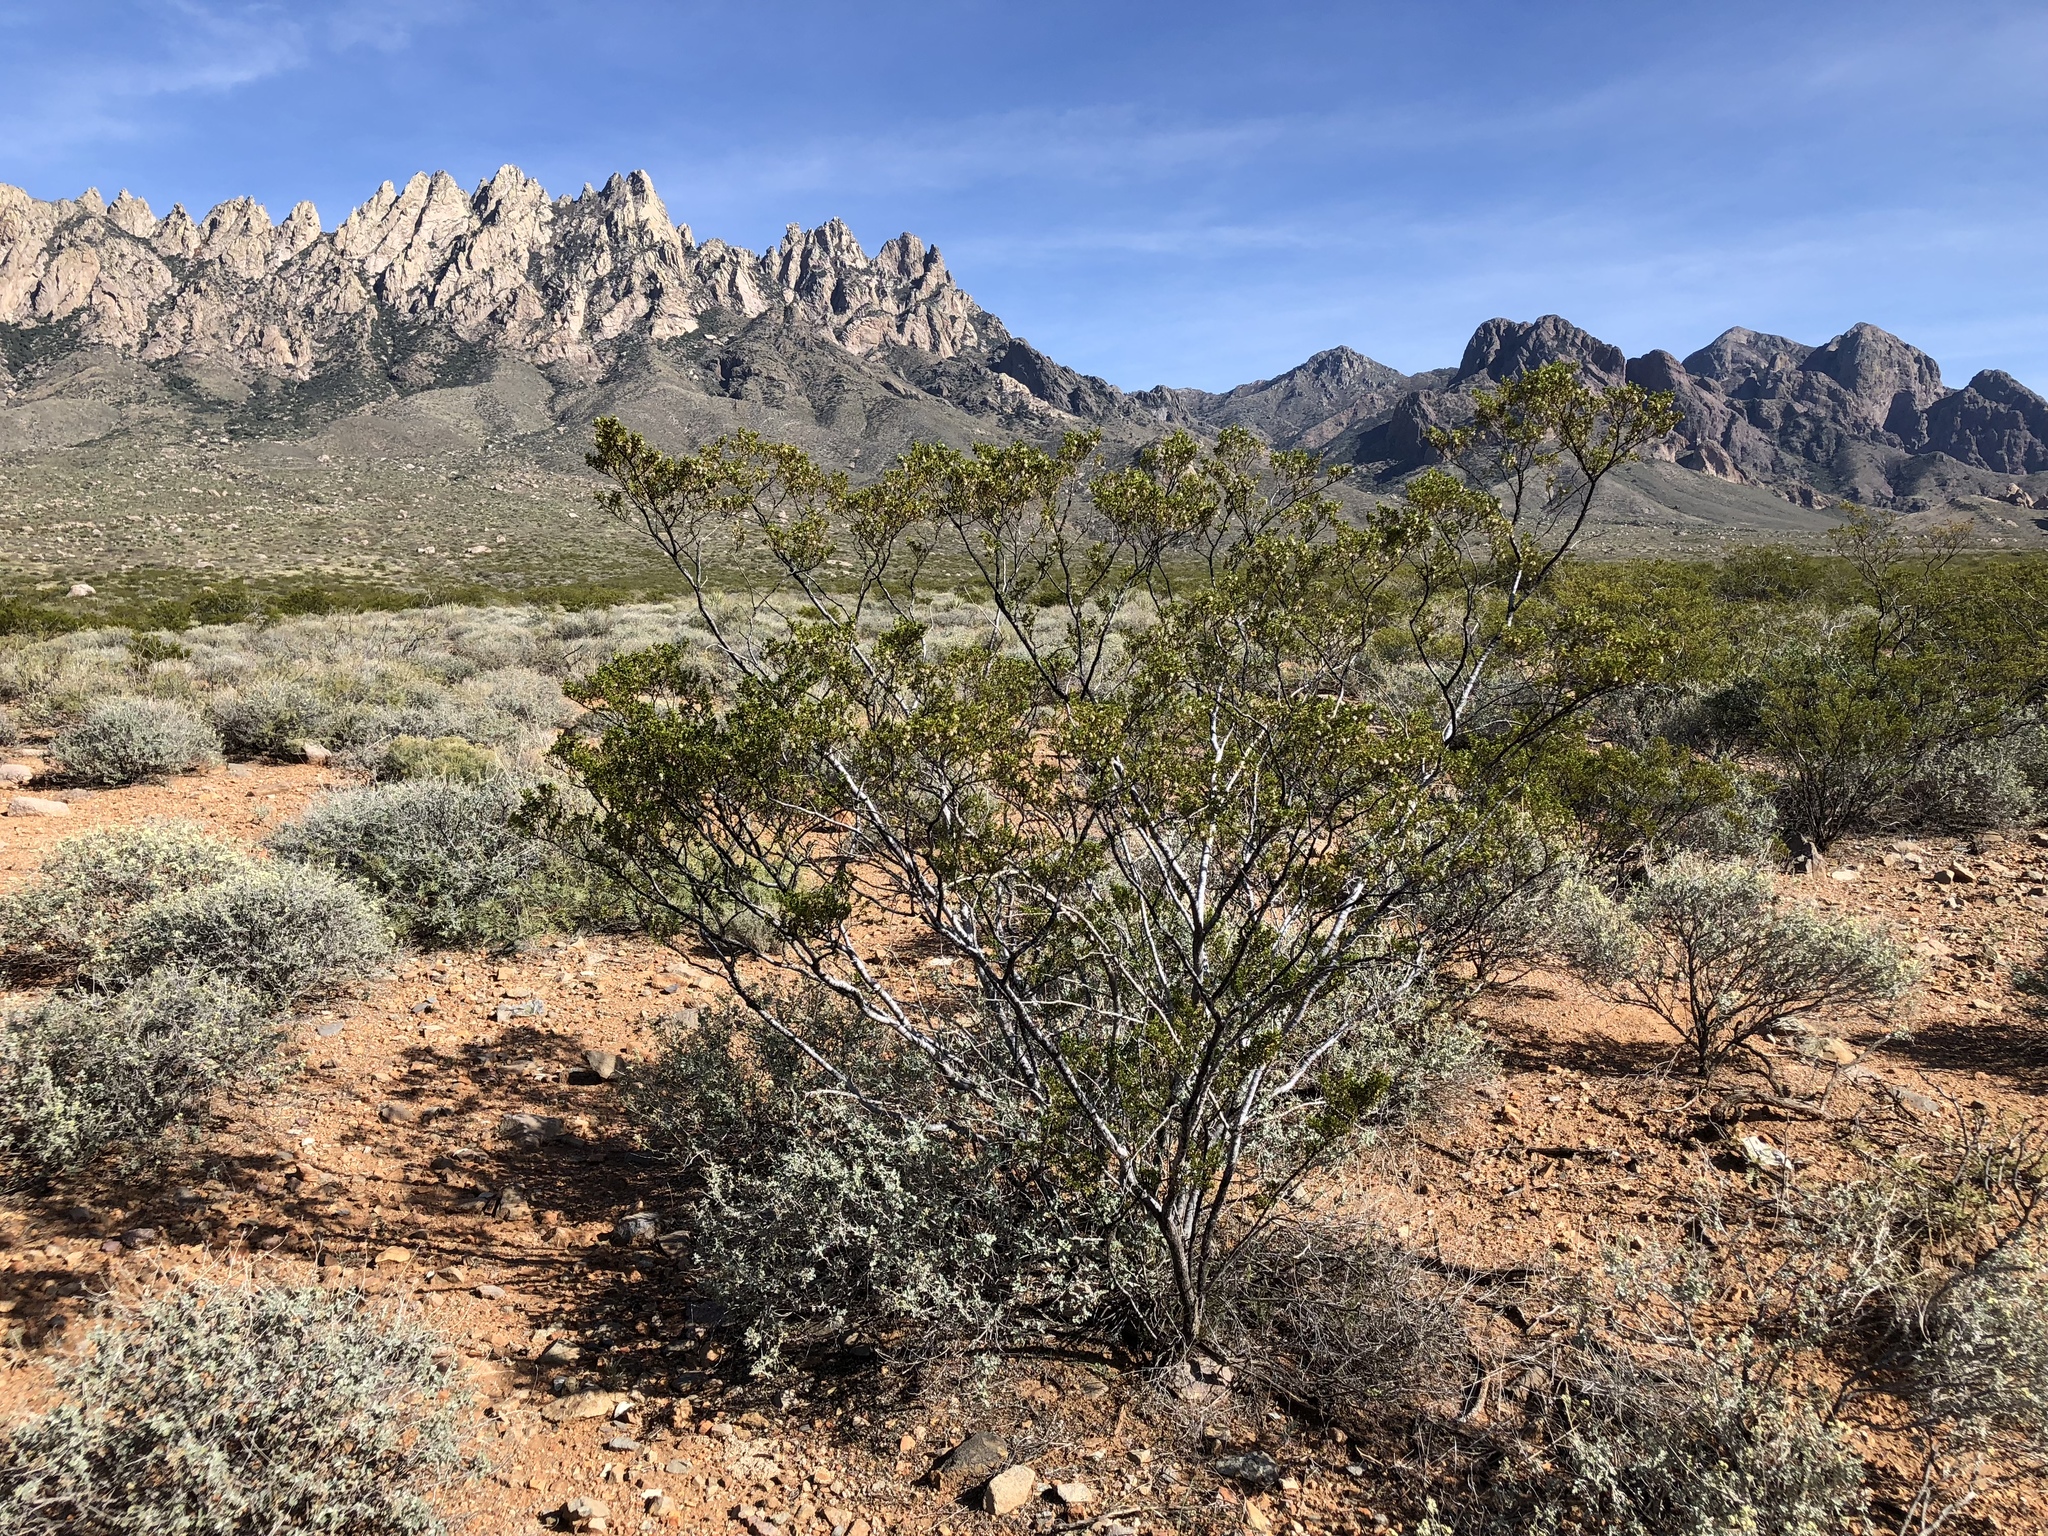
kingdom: Plantae
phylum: Tracheophyta
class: Magnoliopsida
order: Zygophyllales
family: Zygophyllaceae
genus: Larrea
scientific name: Larrea tridentata
